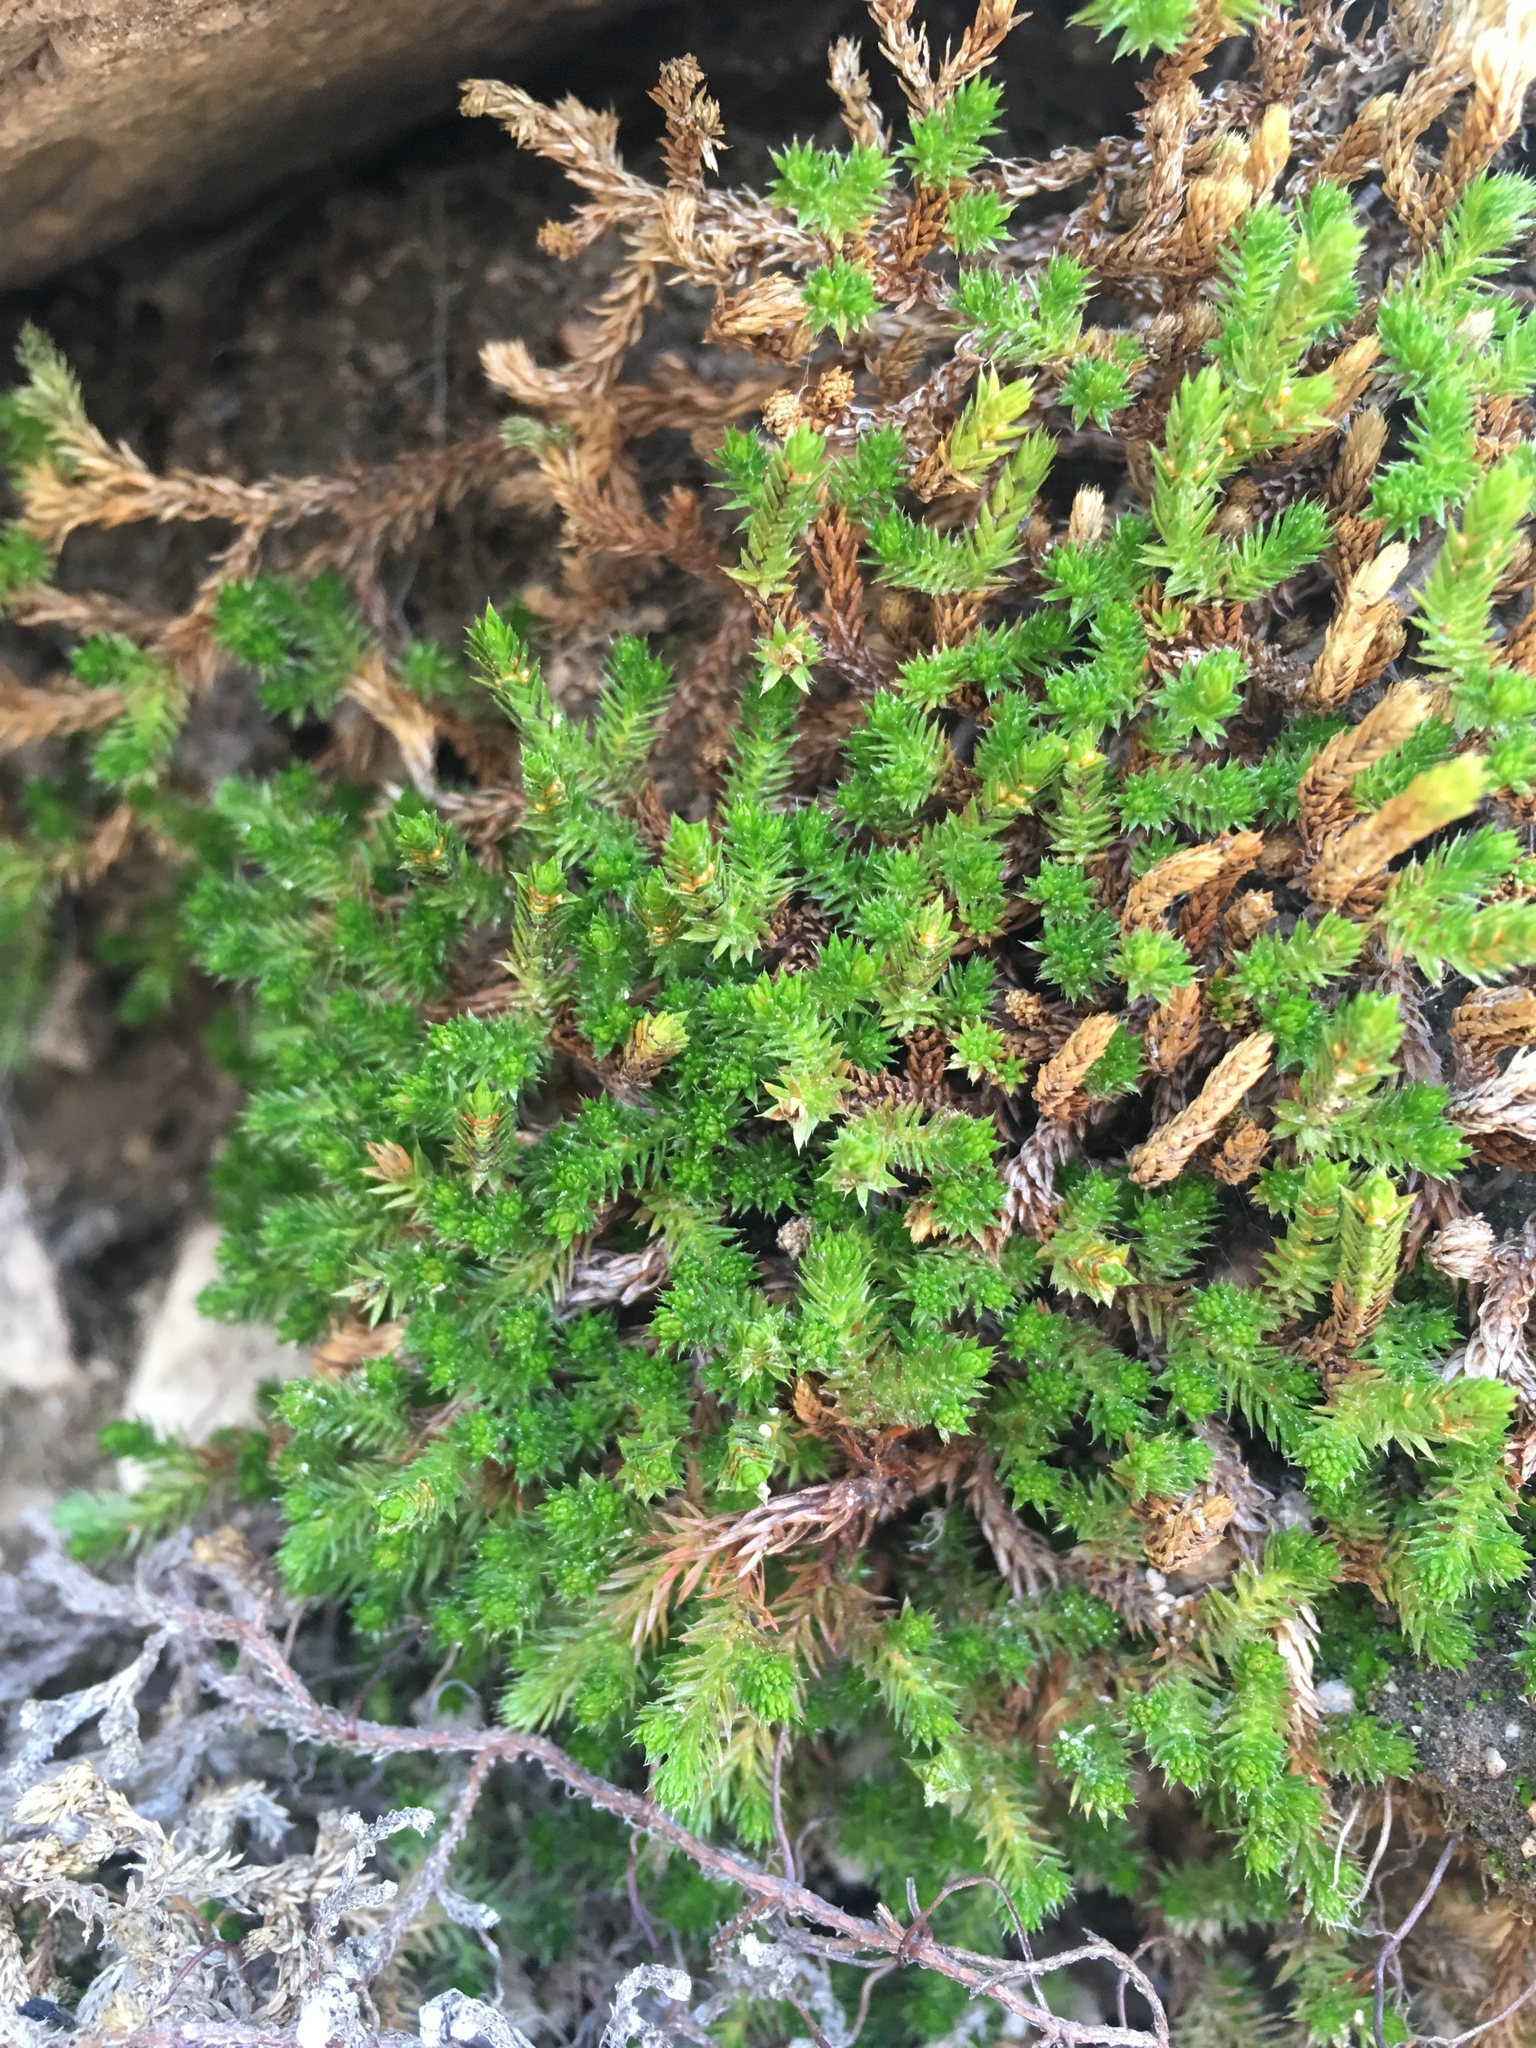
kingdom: Plantae
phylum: Tracheophyta
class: Lycopodiopsida
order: Selaginellales
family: Selaginellaceae
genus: Selaginella
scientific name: Selaginella bigelovii
